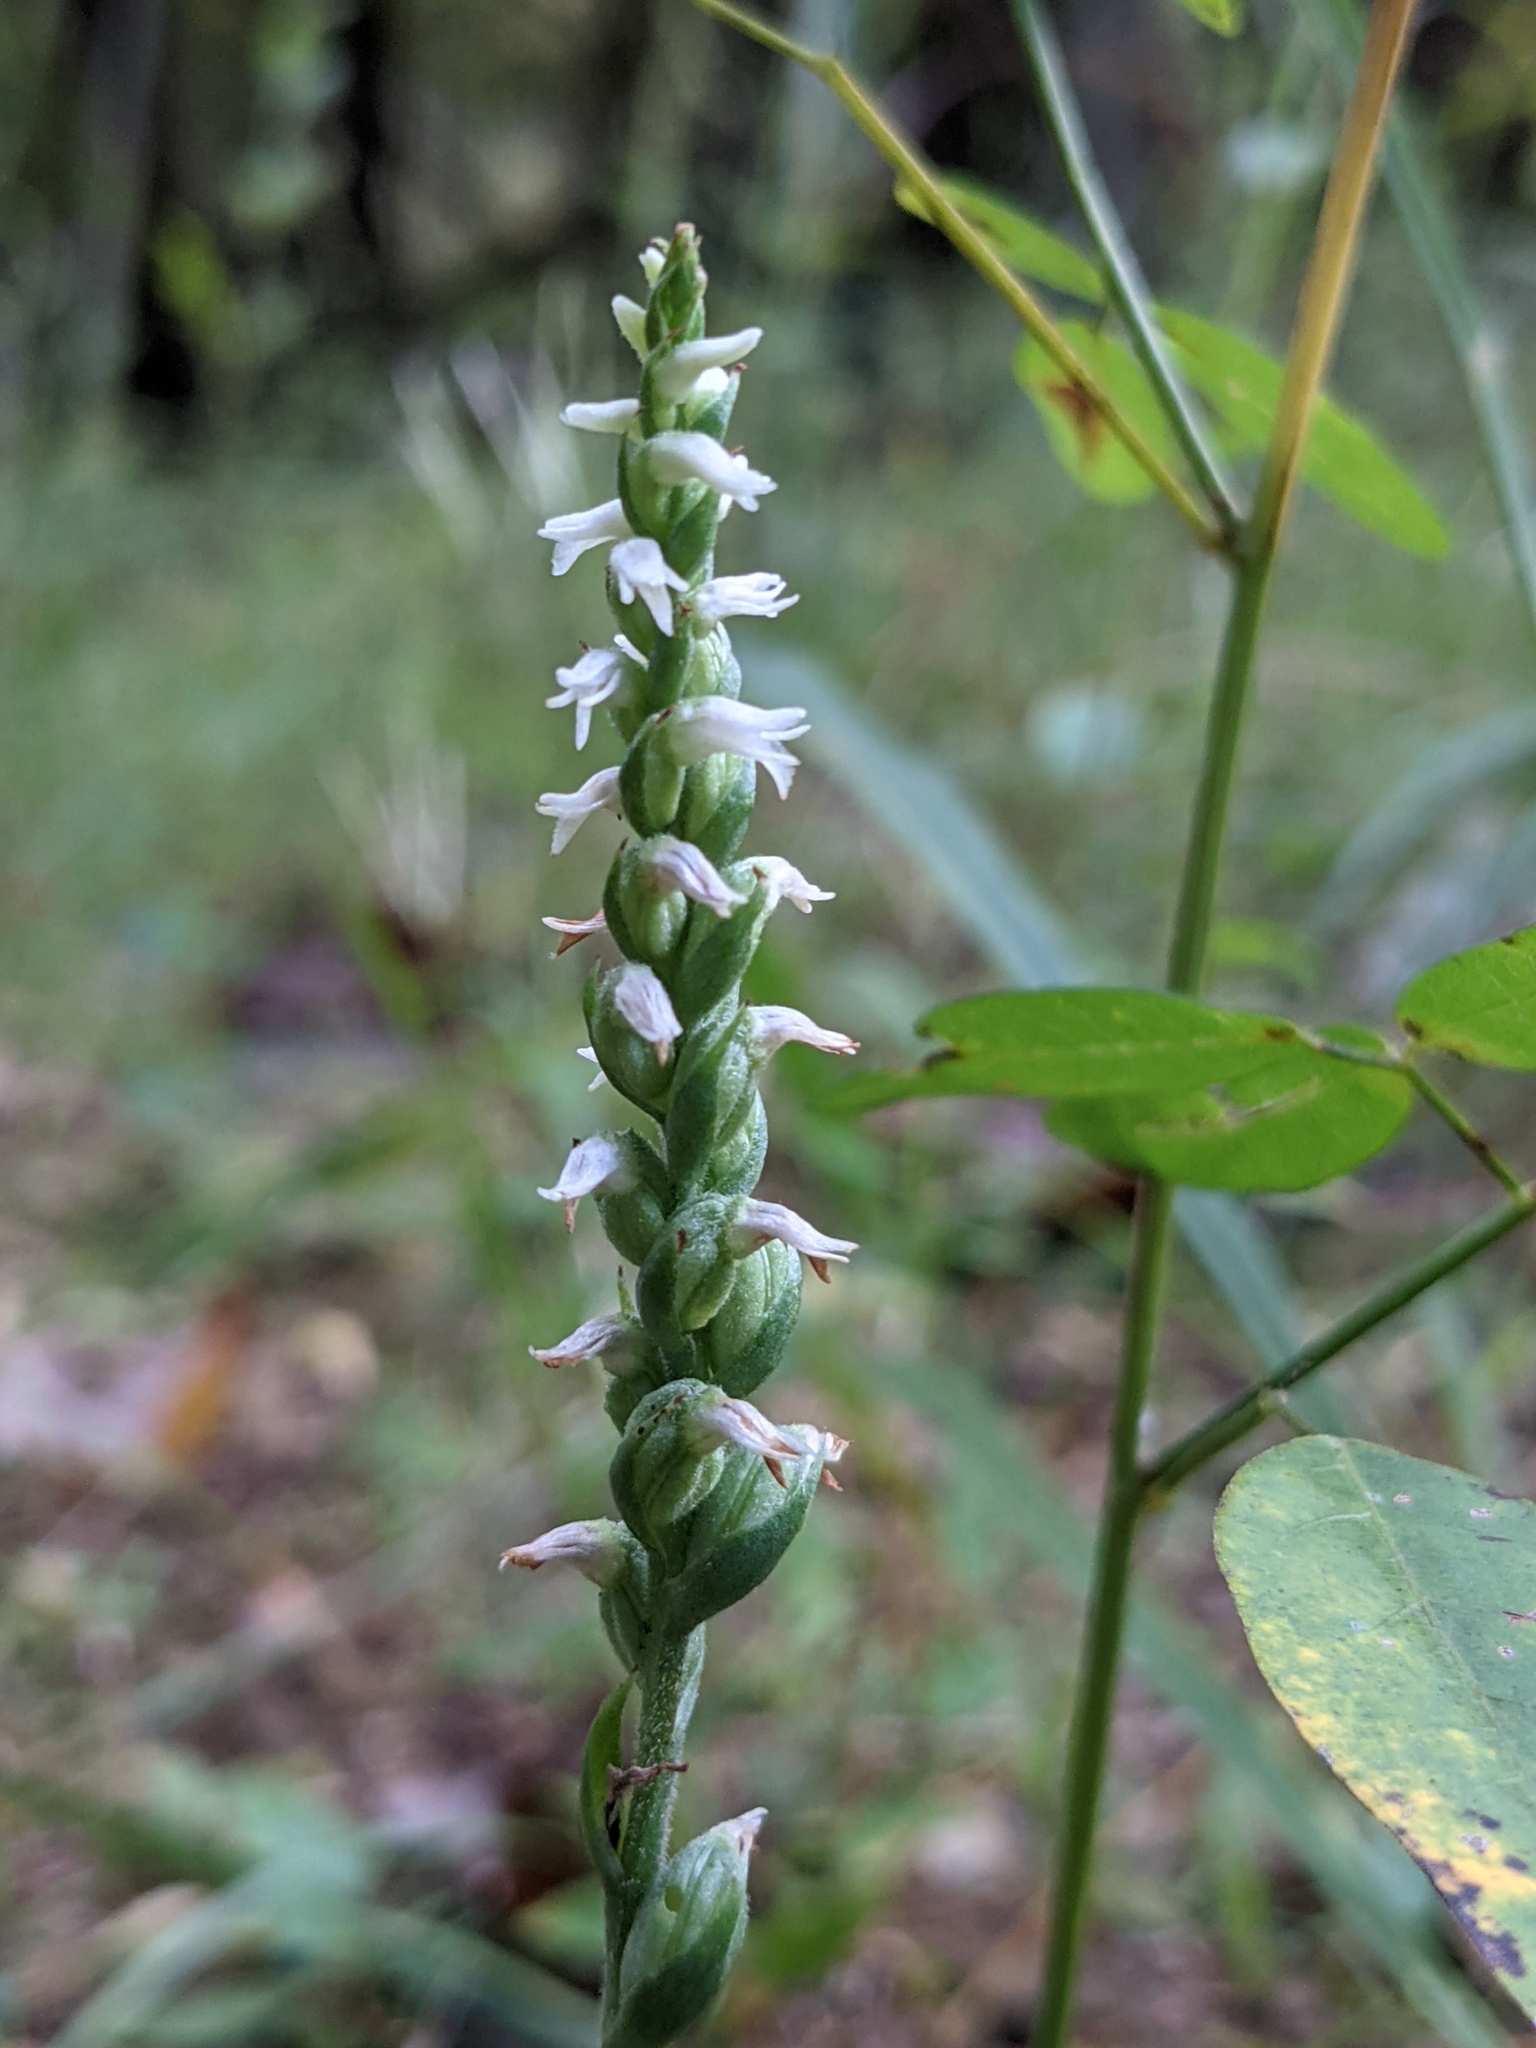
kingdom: Plantae
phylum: Tracheophyta
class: Liliopsida
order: Asparagales
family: Orchidaceae
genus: Spiranthes
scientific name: Spiranthes ovalis
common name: October ladies'-tresses
